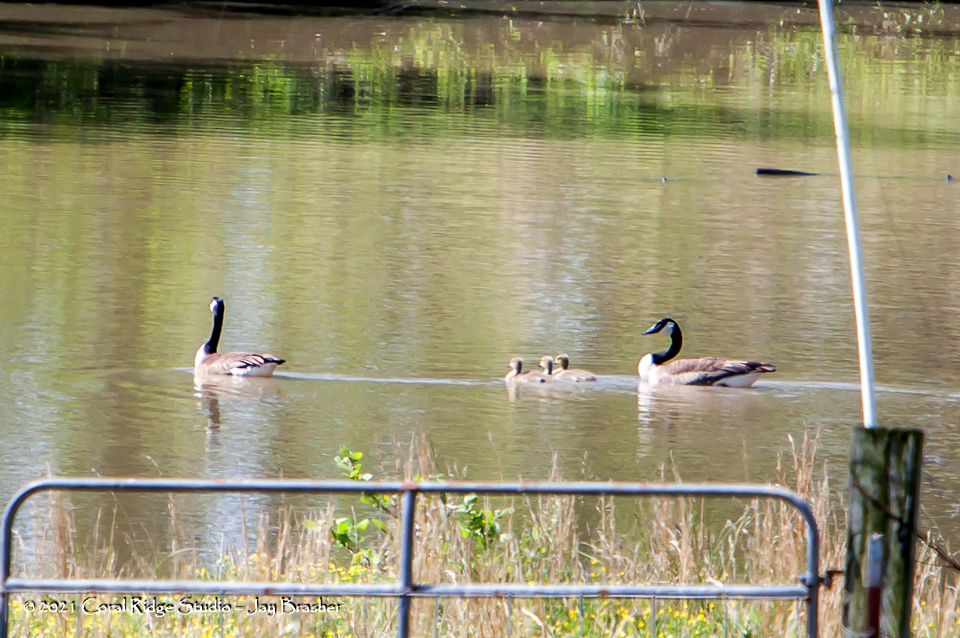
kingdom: Animalia
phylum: Chordata
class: Aves
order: Anseriformes
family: Anatidae
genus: Branta
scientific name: Branta canadensis
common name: Canada goose
